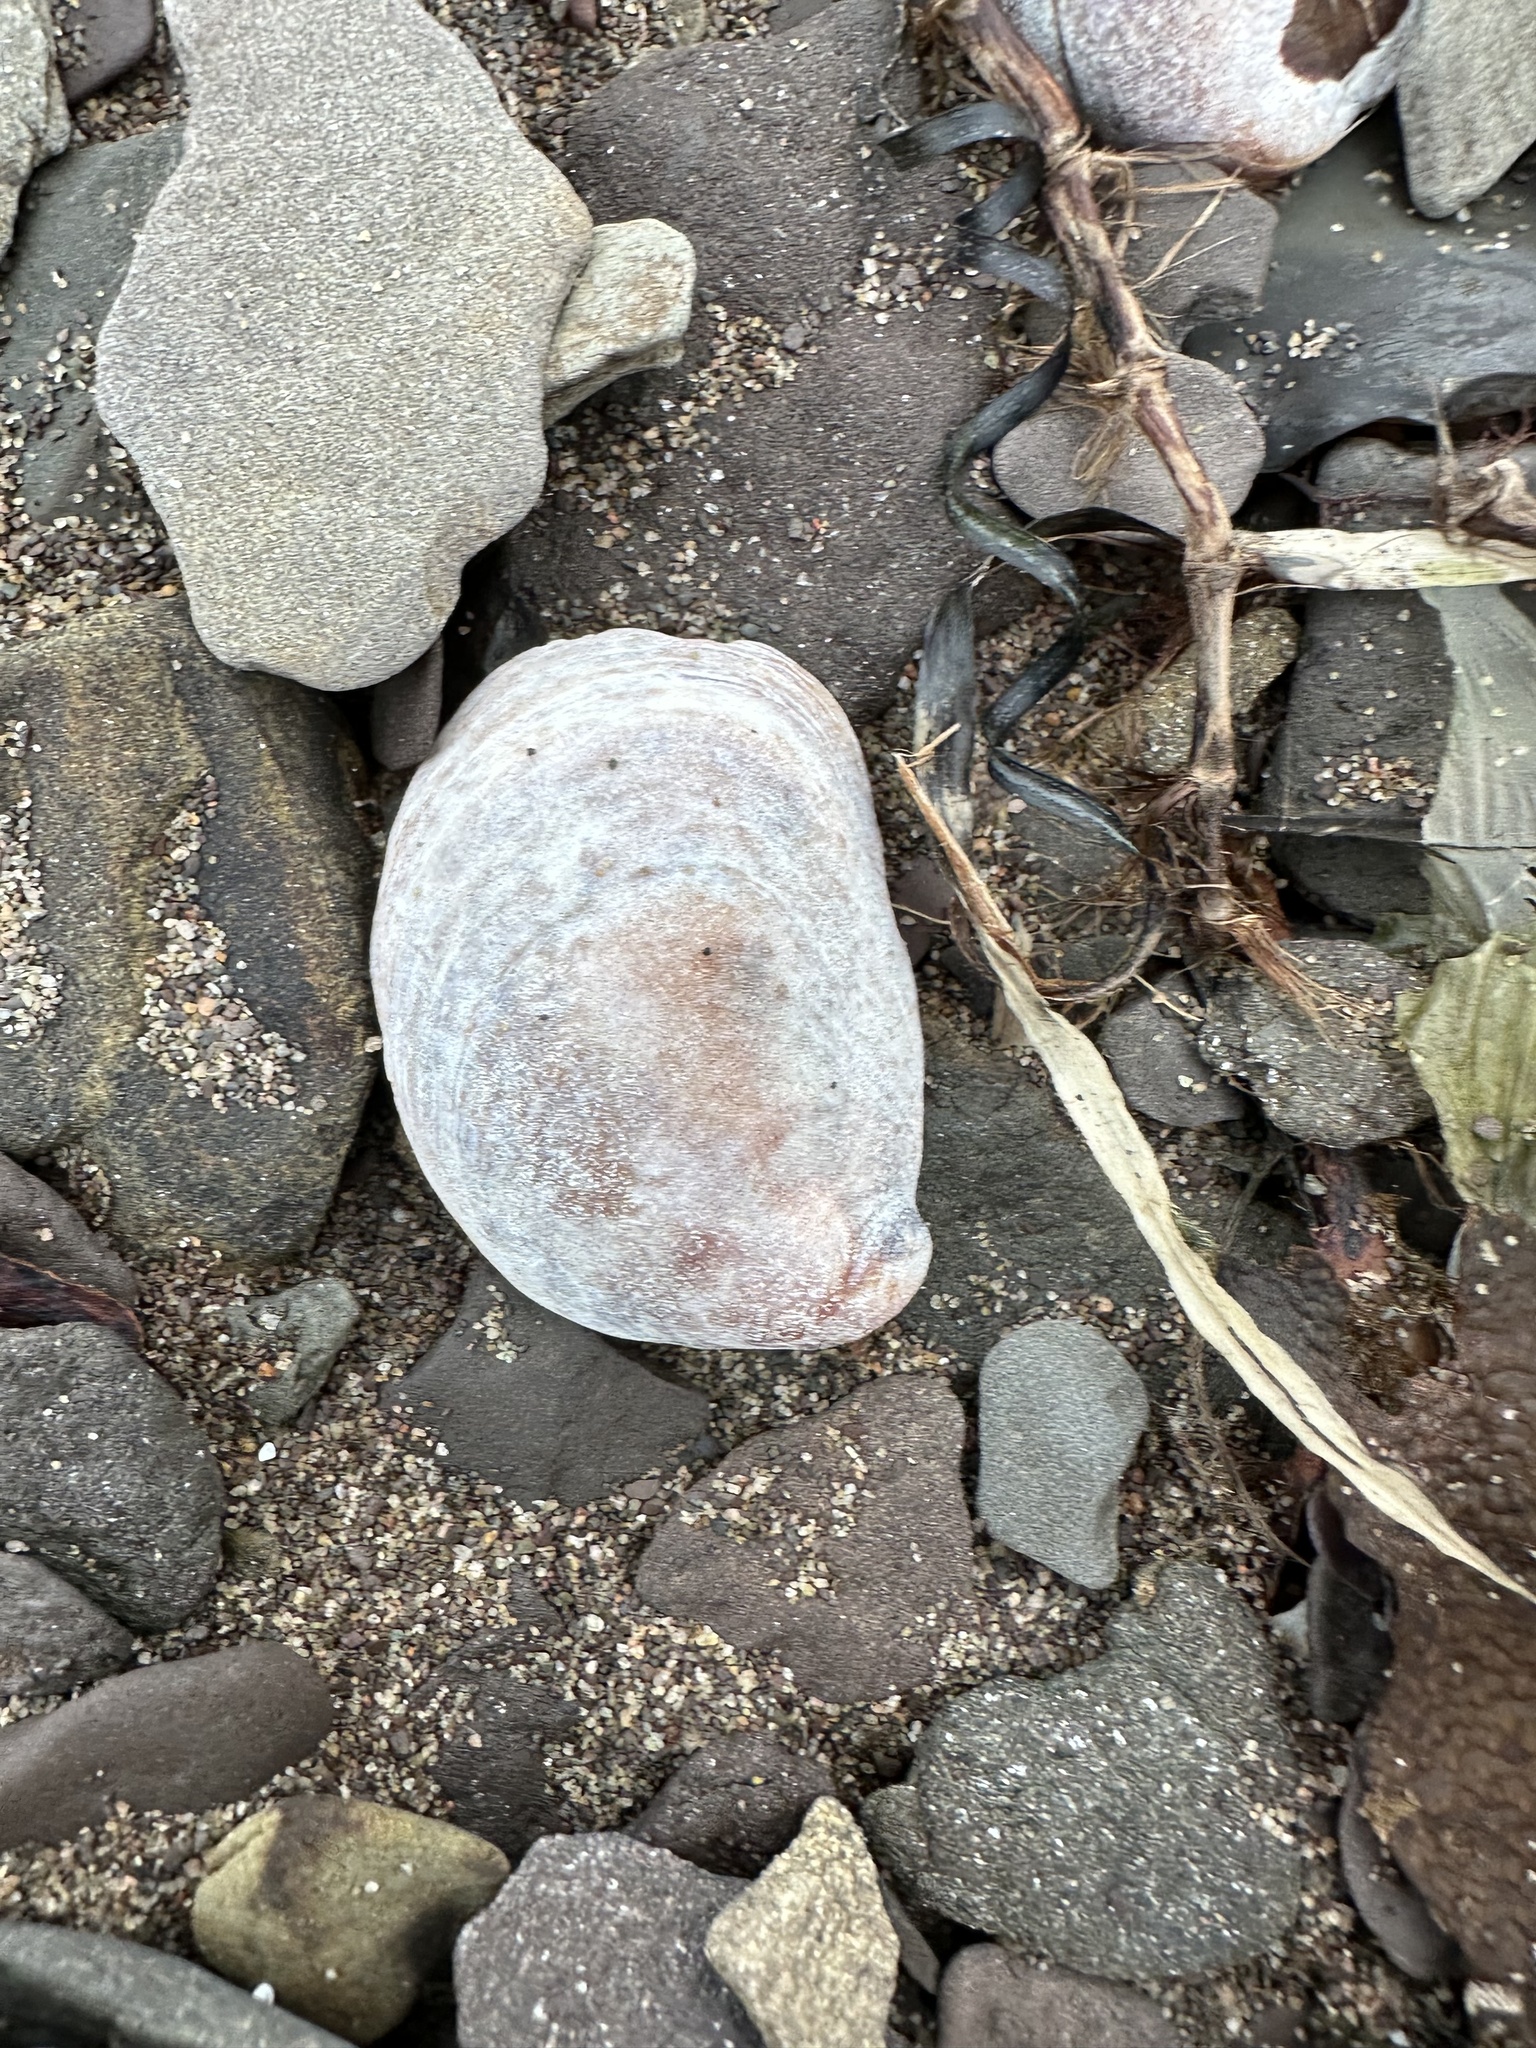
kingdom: Animalia
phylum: Mollusca
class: Gastropoda
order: Littorinimorpha
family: Calyptraeidae
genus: Crepidula
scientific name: Crepidula fornicata
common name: Slipper limpet
